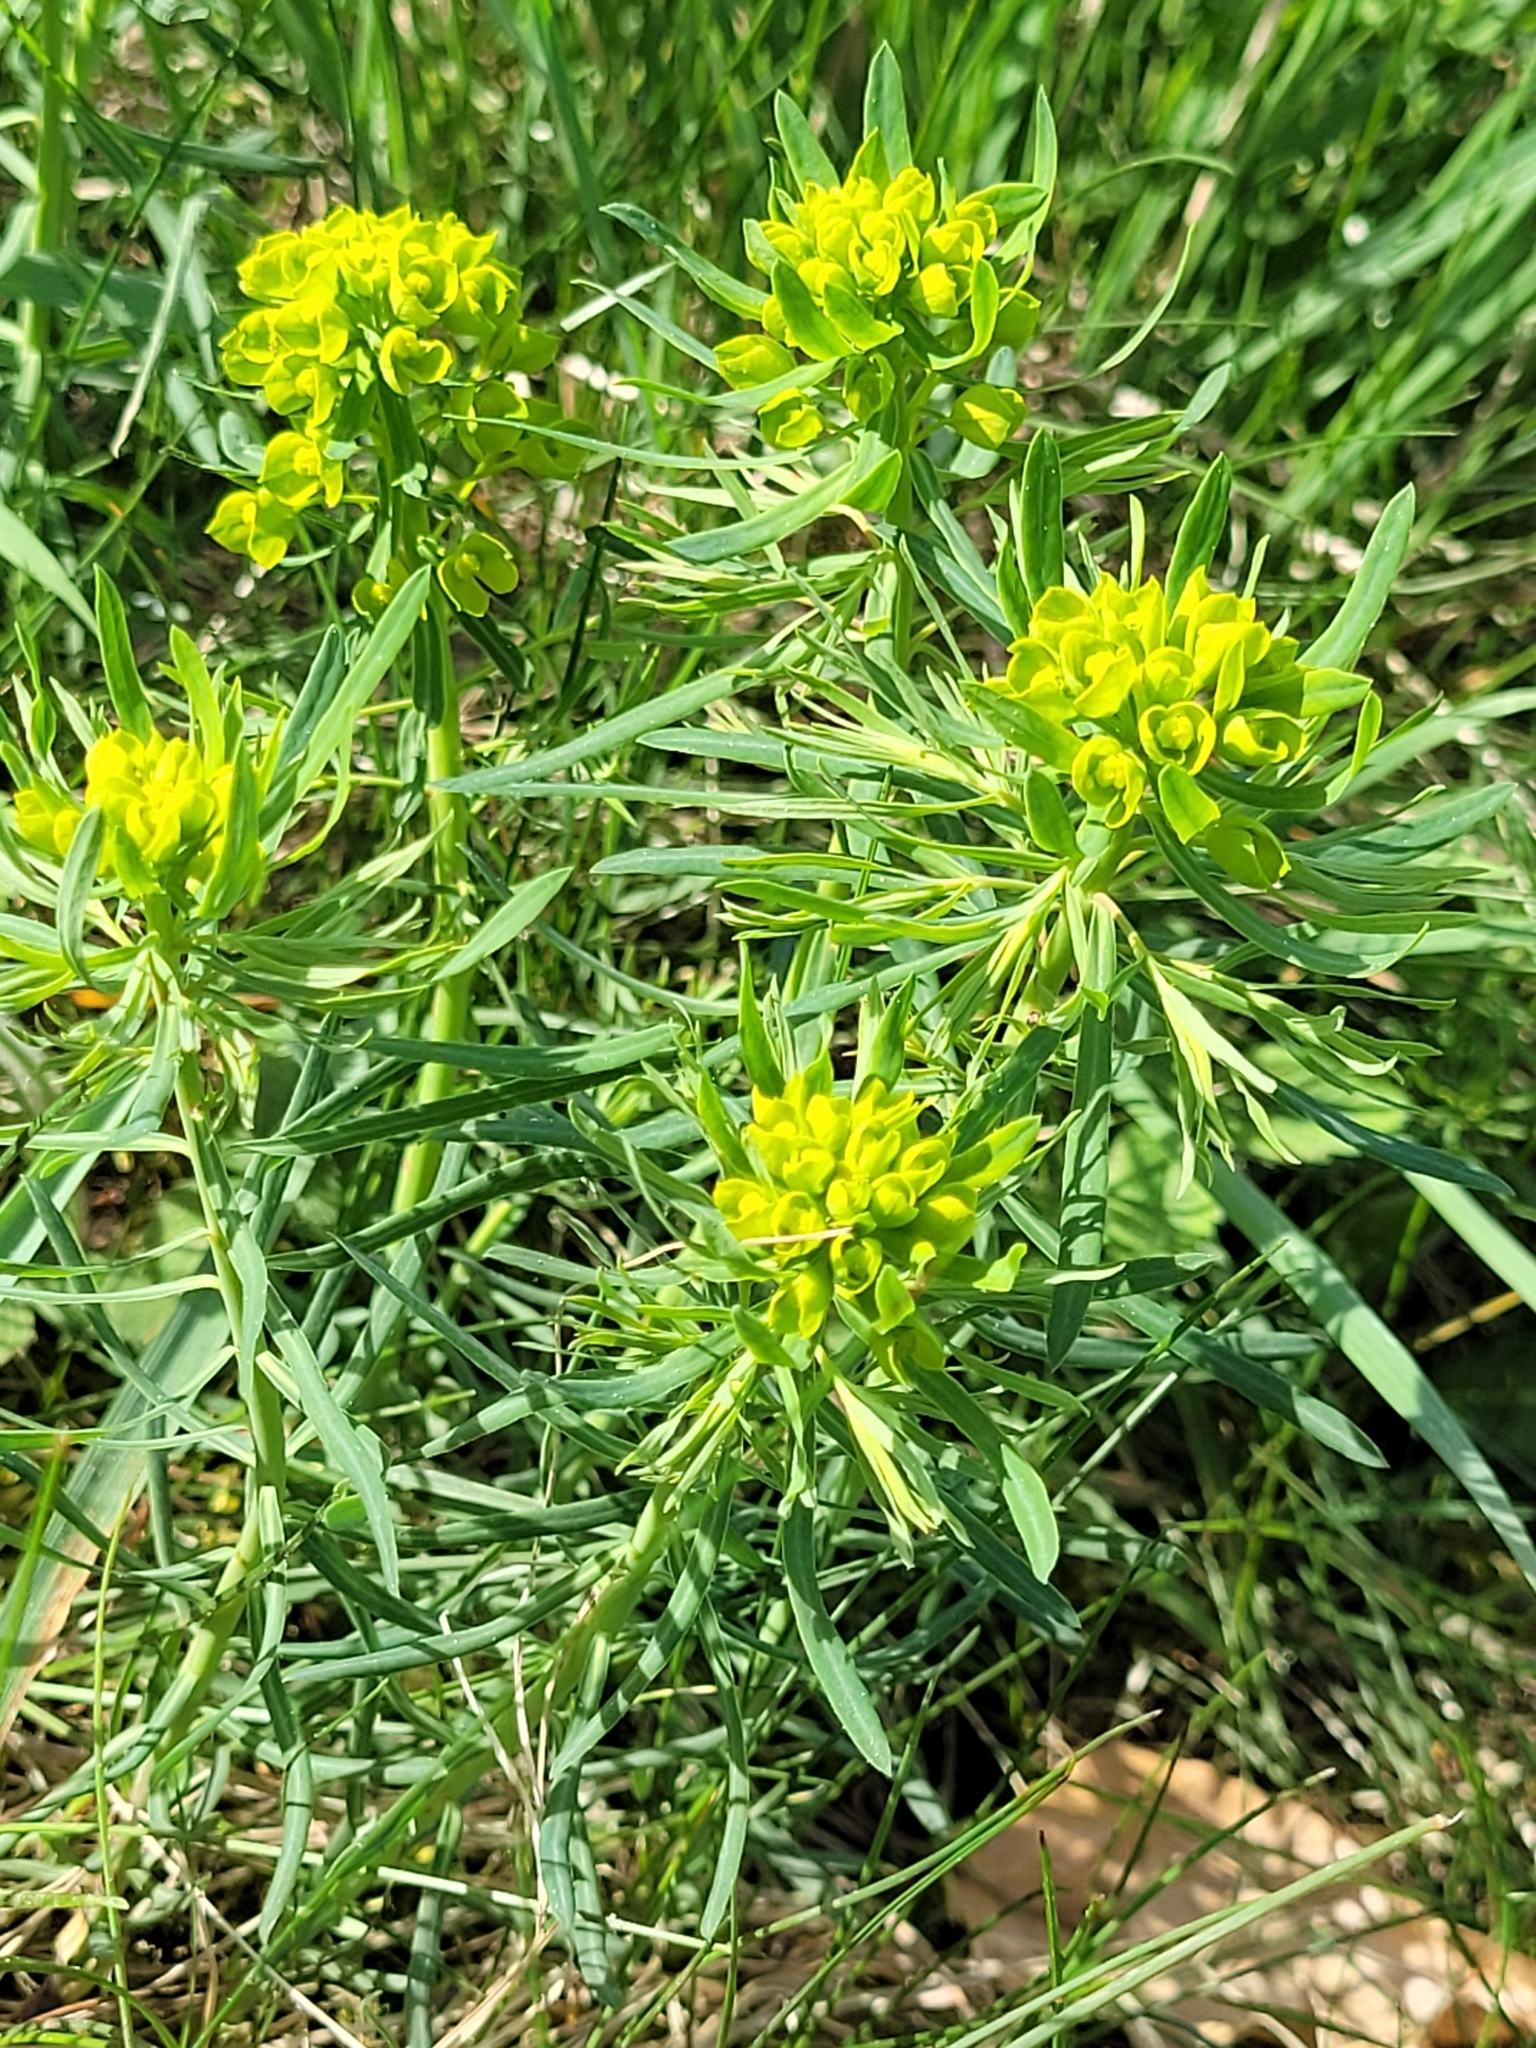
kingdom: Plantae
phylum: Tracheophyta
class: Magnoliopsida
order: Malpighiales
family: Euphorbiaceae
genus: Euphorbia
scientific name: Euphorbia cyparissias
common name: Cypress spurge
